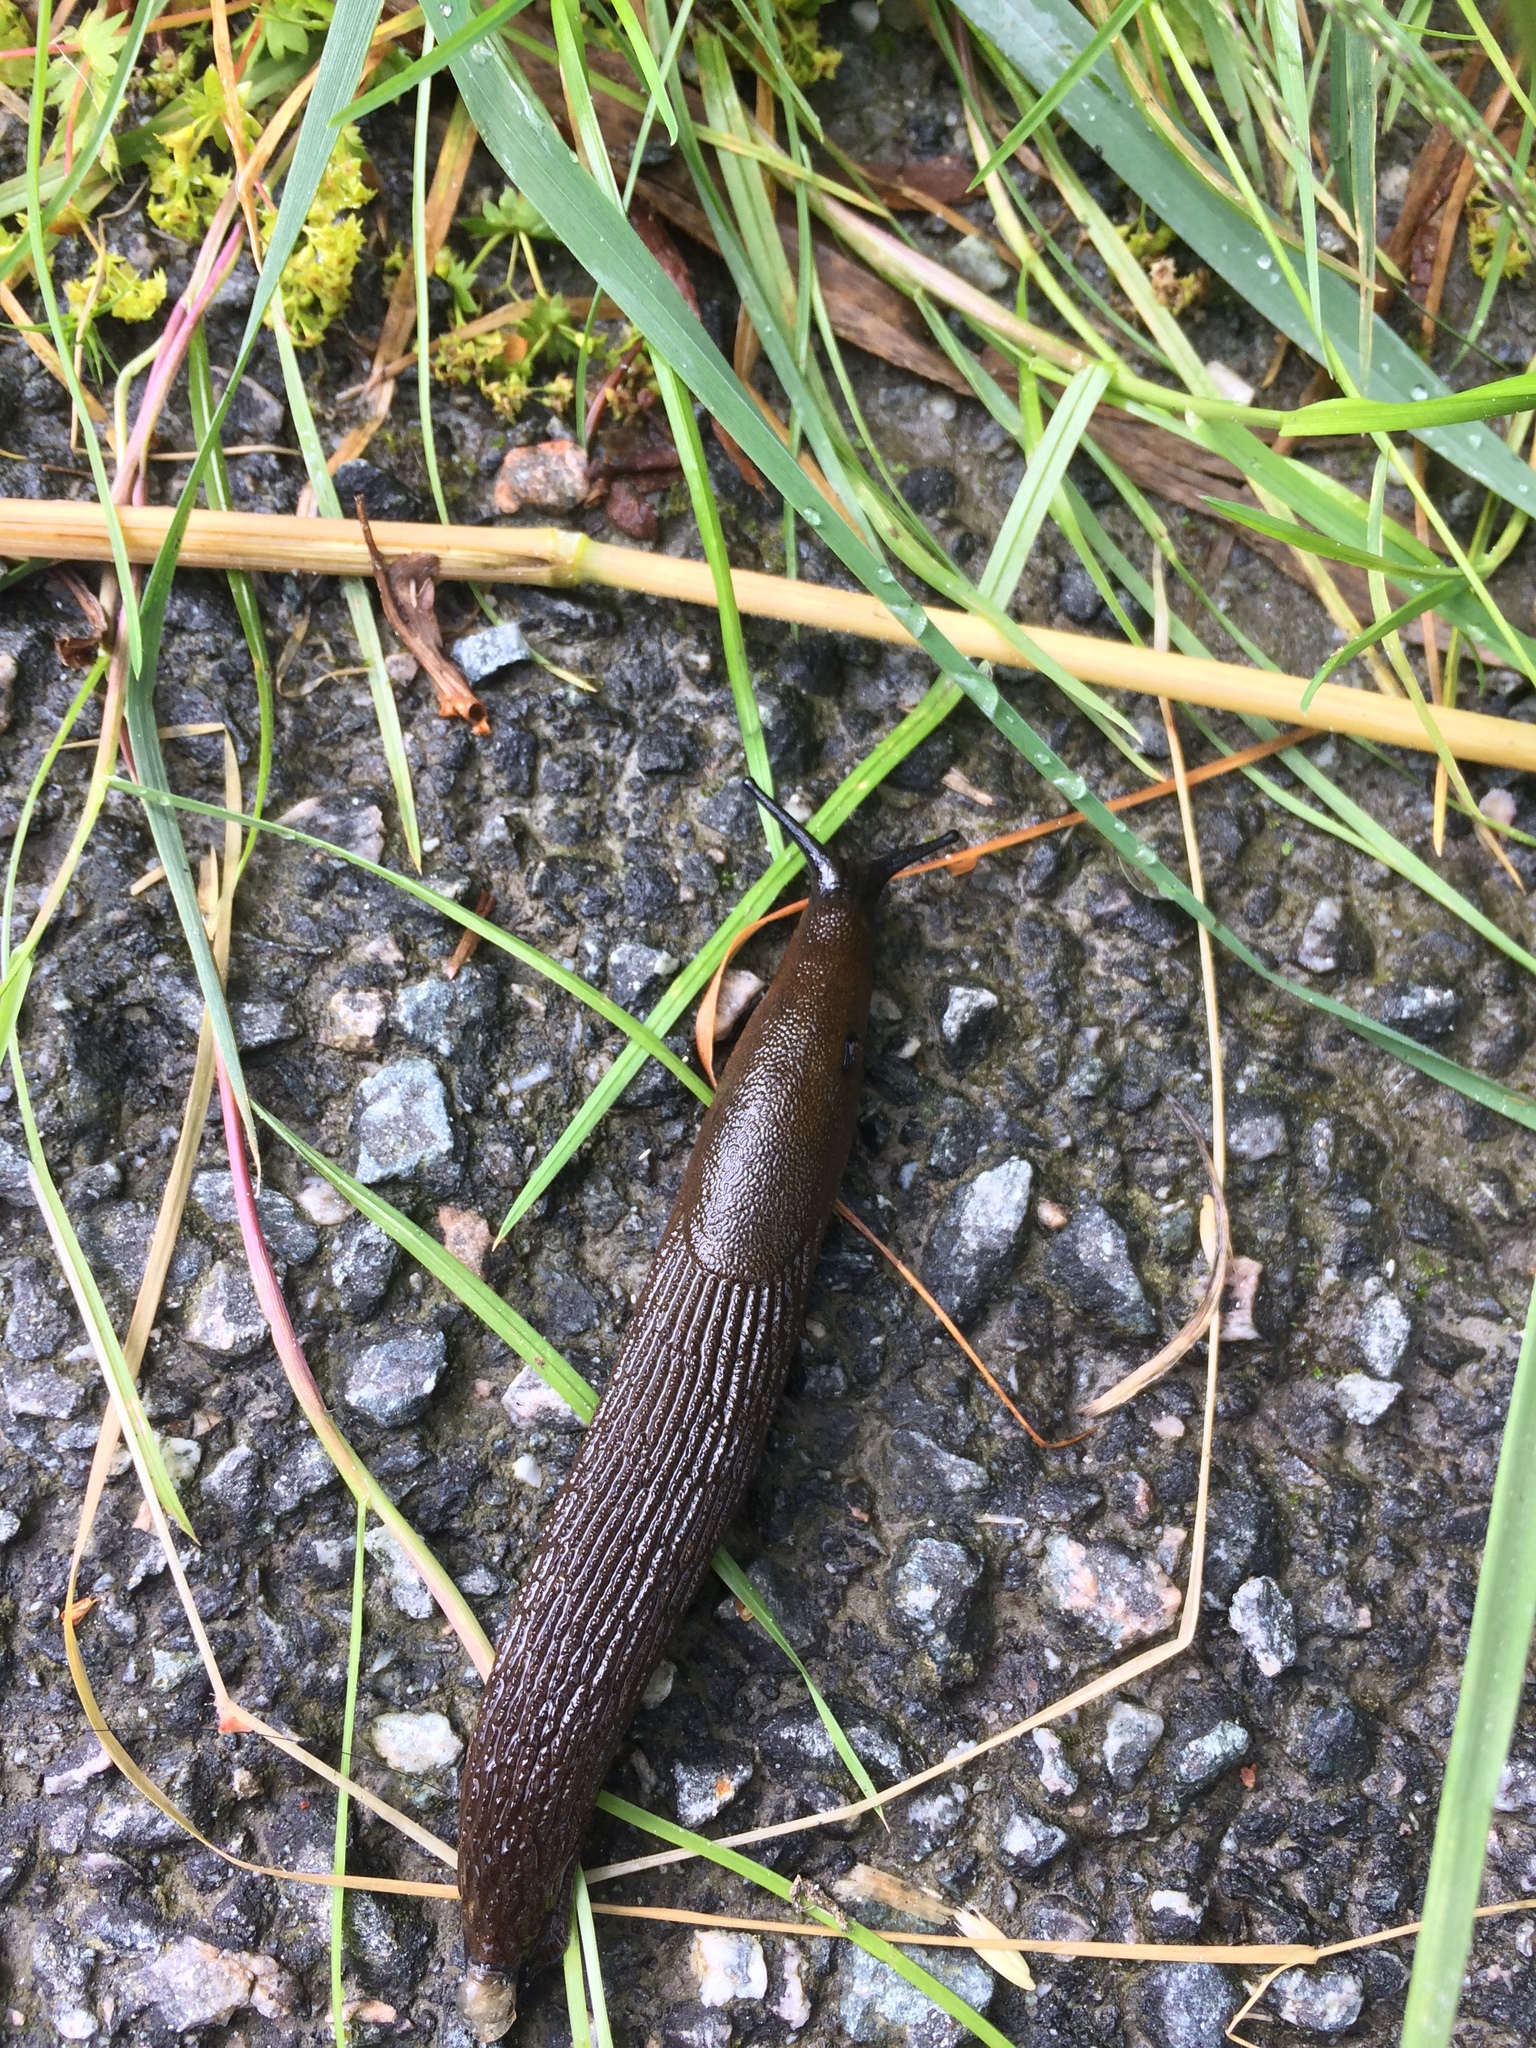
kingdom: Animalia
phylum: Mollusca
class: Gastropoda
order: Stylommatophora
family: Arionidae
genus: Arion
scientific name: Arion vulgaris
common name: Lusitanian slug
